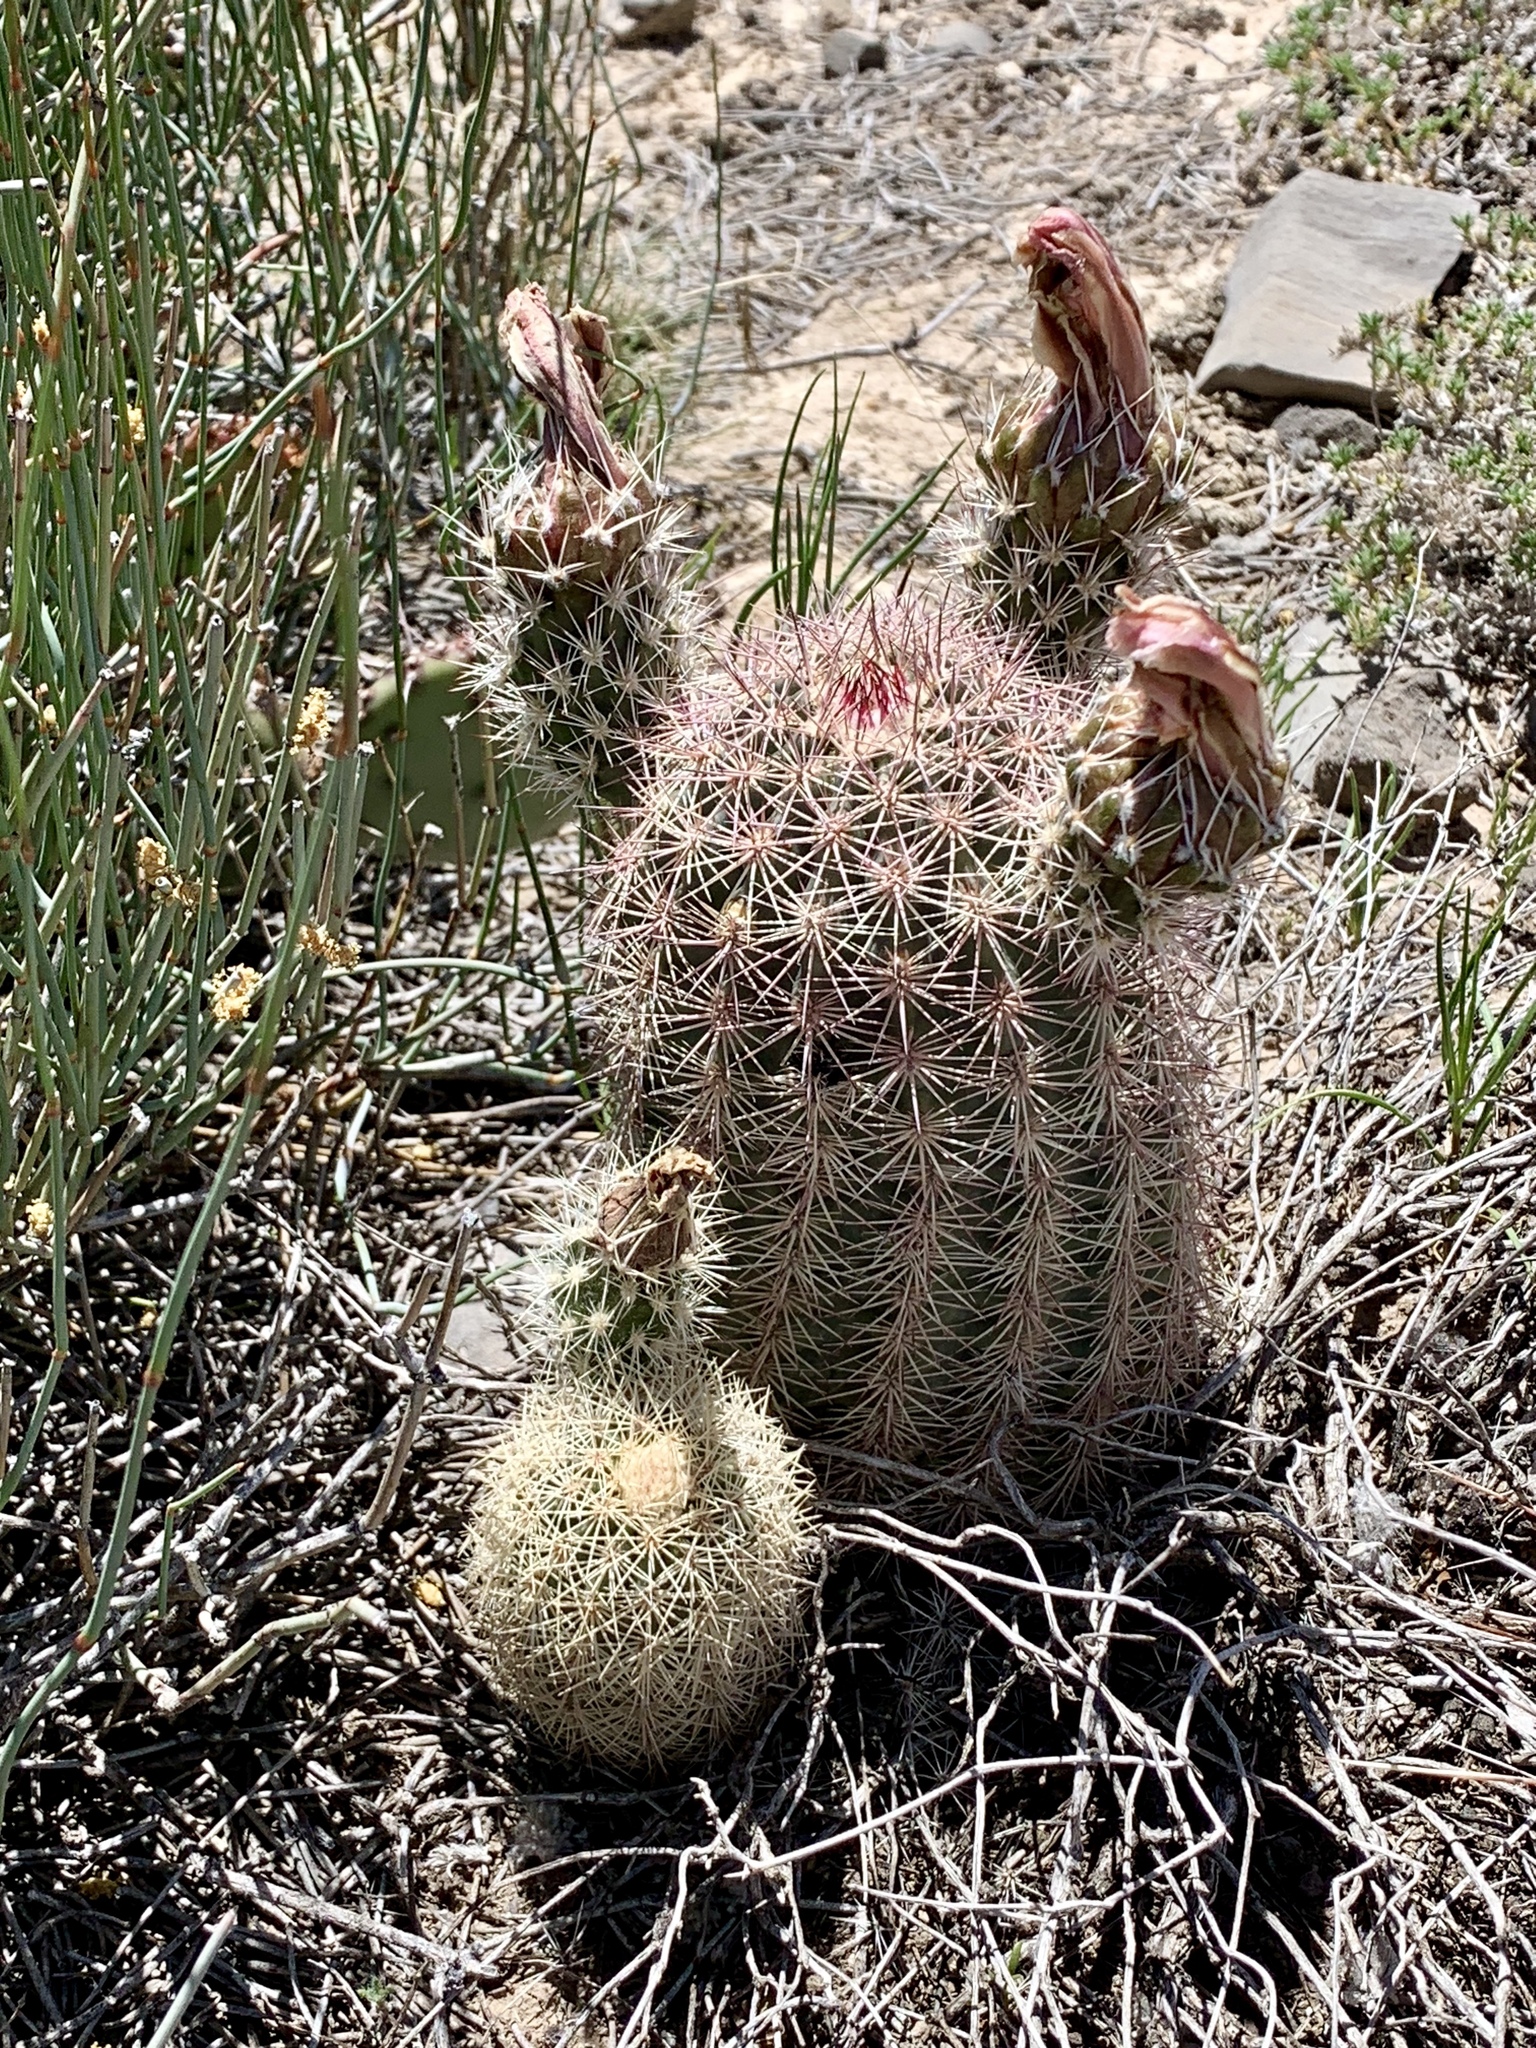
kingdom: Plantae
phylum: Tracheophyta
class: Magnoliopsida
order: Caryophyllales
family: Cactaceae
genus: Echinocereus
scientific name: Echinocereus dasyacanthus
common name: Spiny hedgehog cactus
